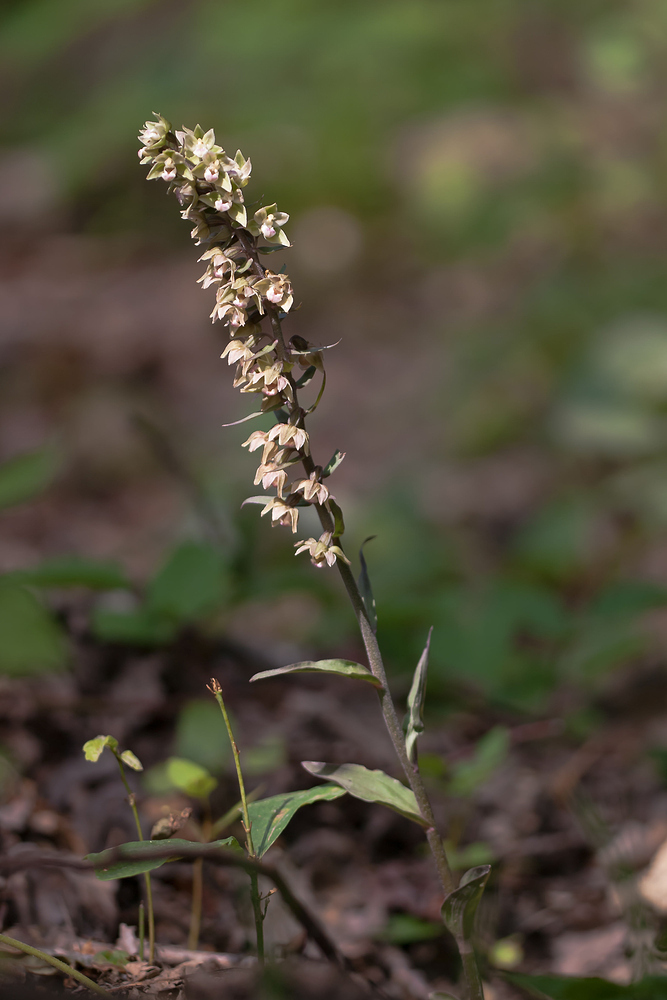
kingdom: Plantae
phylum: Tracheophyta
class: Liliopsida
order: Asparagales
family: Orchidaceae
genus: Epipactis
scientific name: Epipactis purpurata
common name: Violet helleborine
